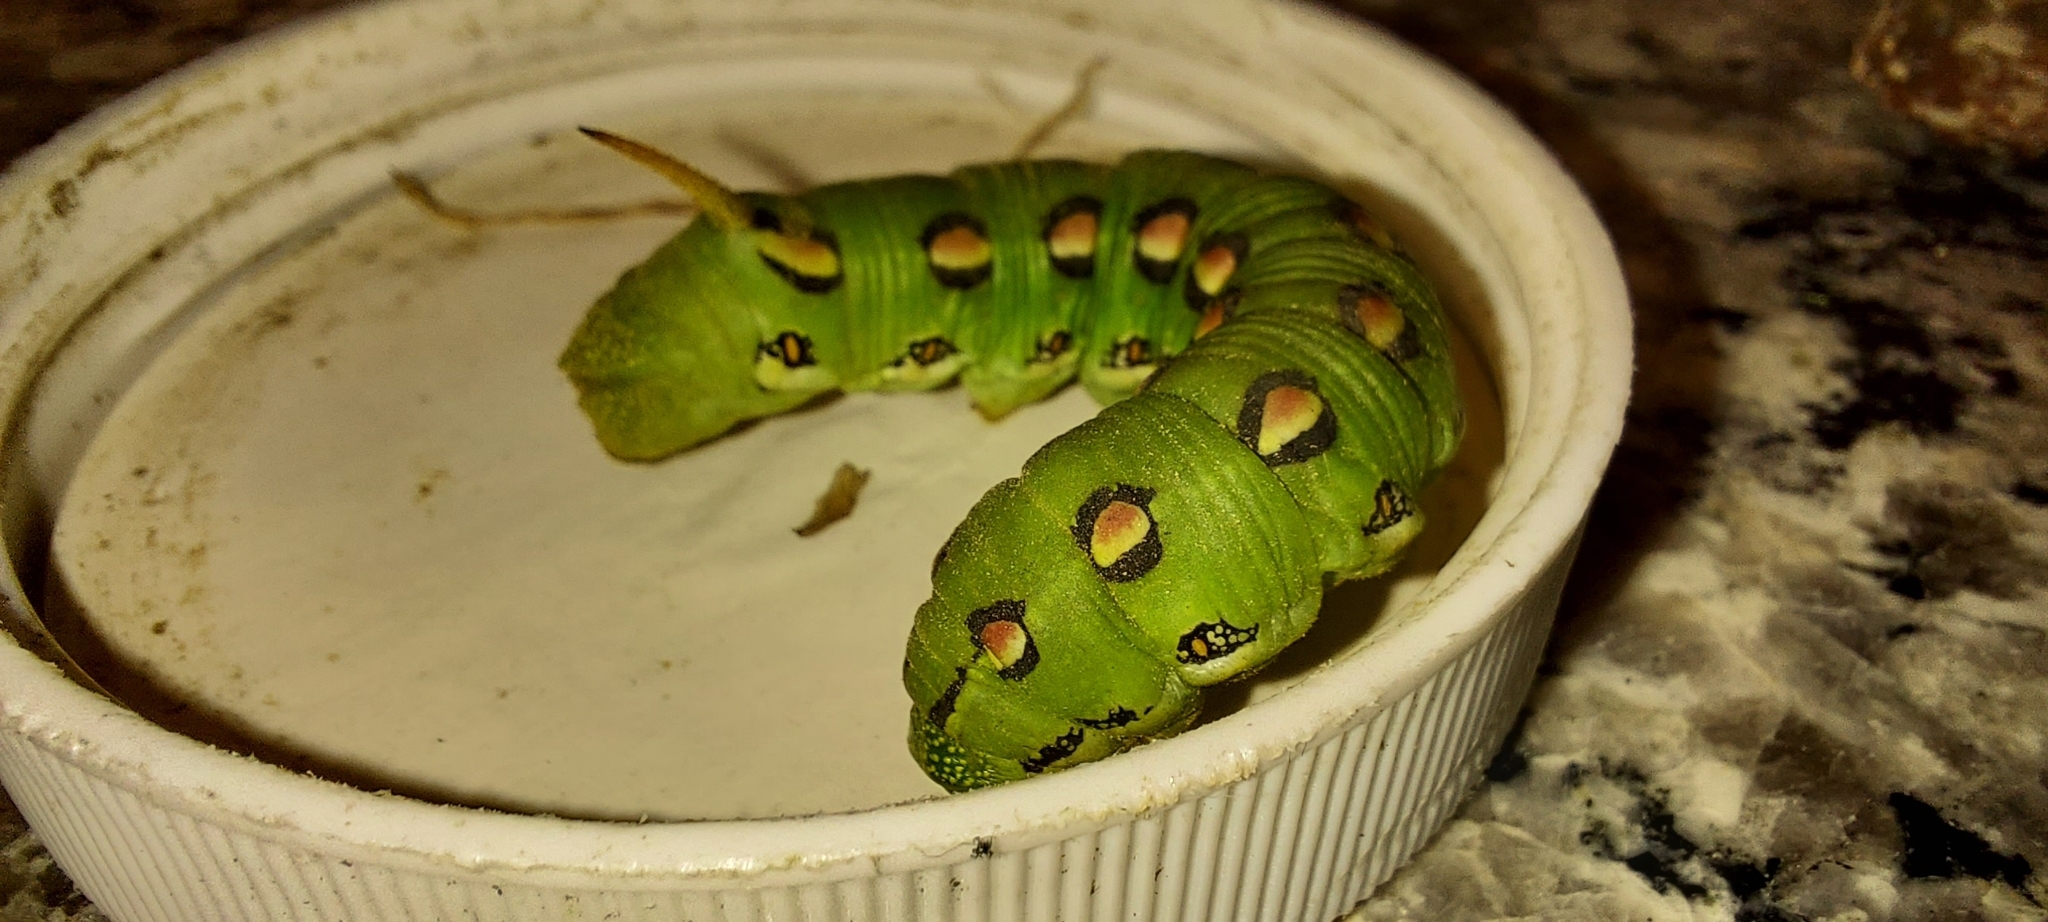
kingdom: Animalia
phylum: Arthropoda
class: Insecta
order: Lepidoptera
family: Sphingidae
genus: Hyles
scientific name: Hyles lineata
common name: White-lined sphinx
